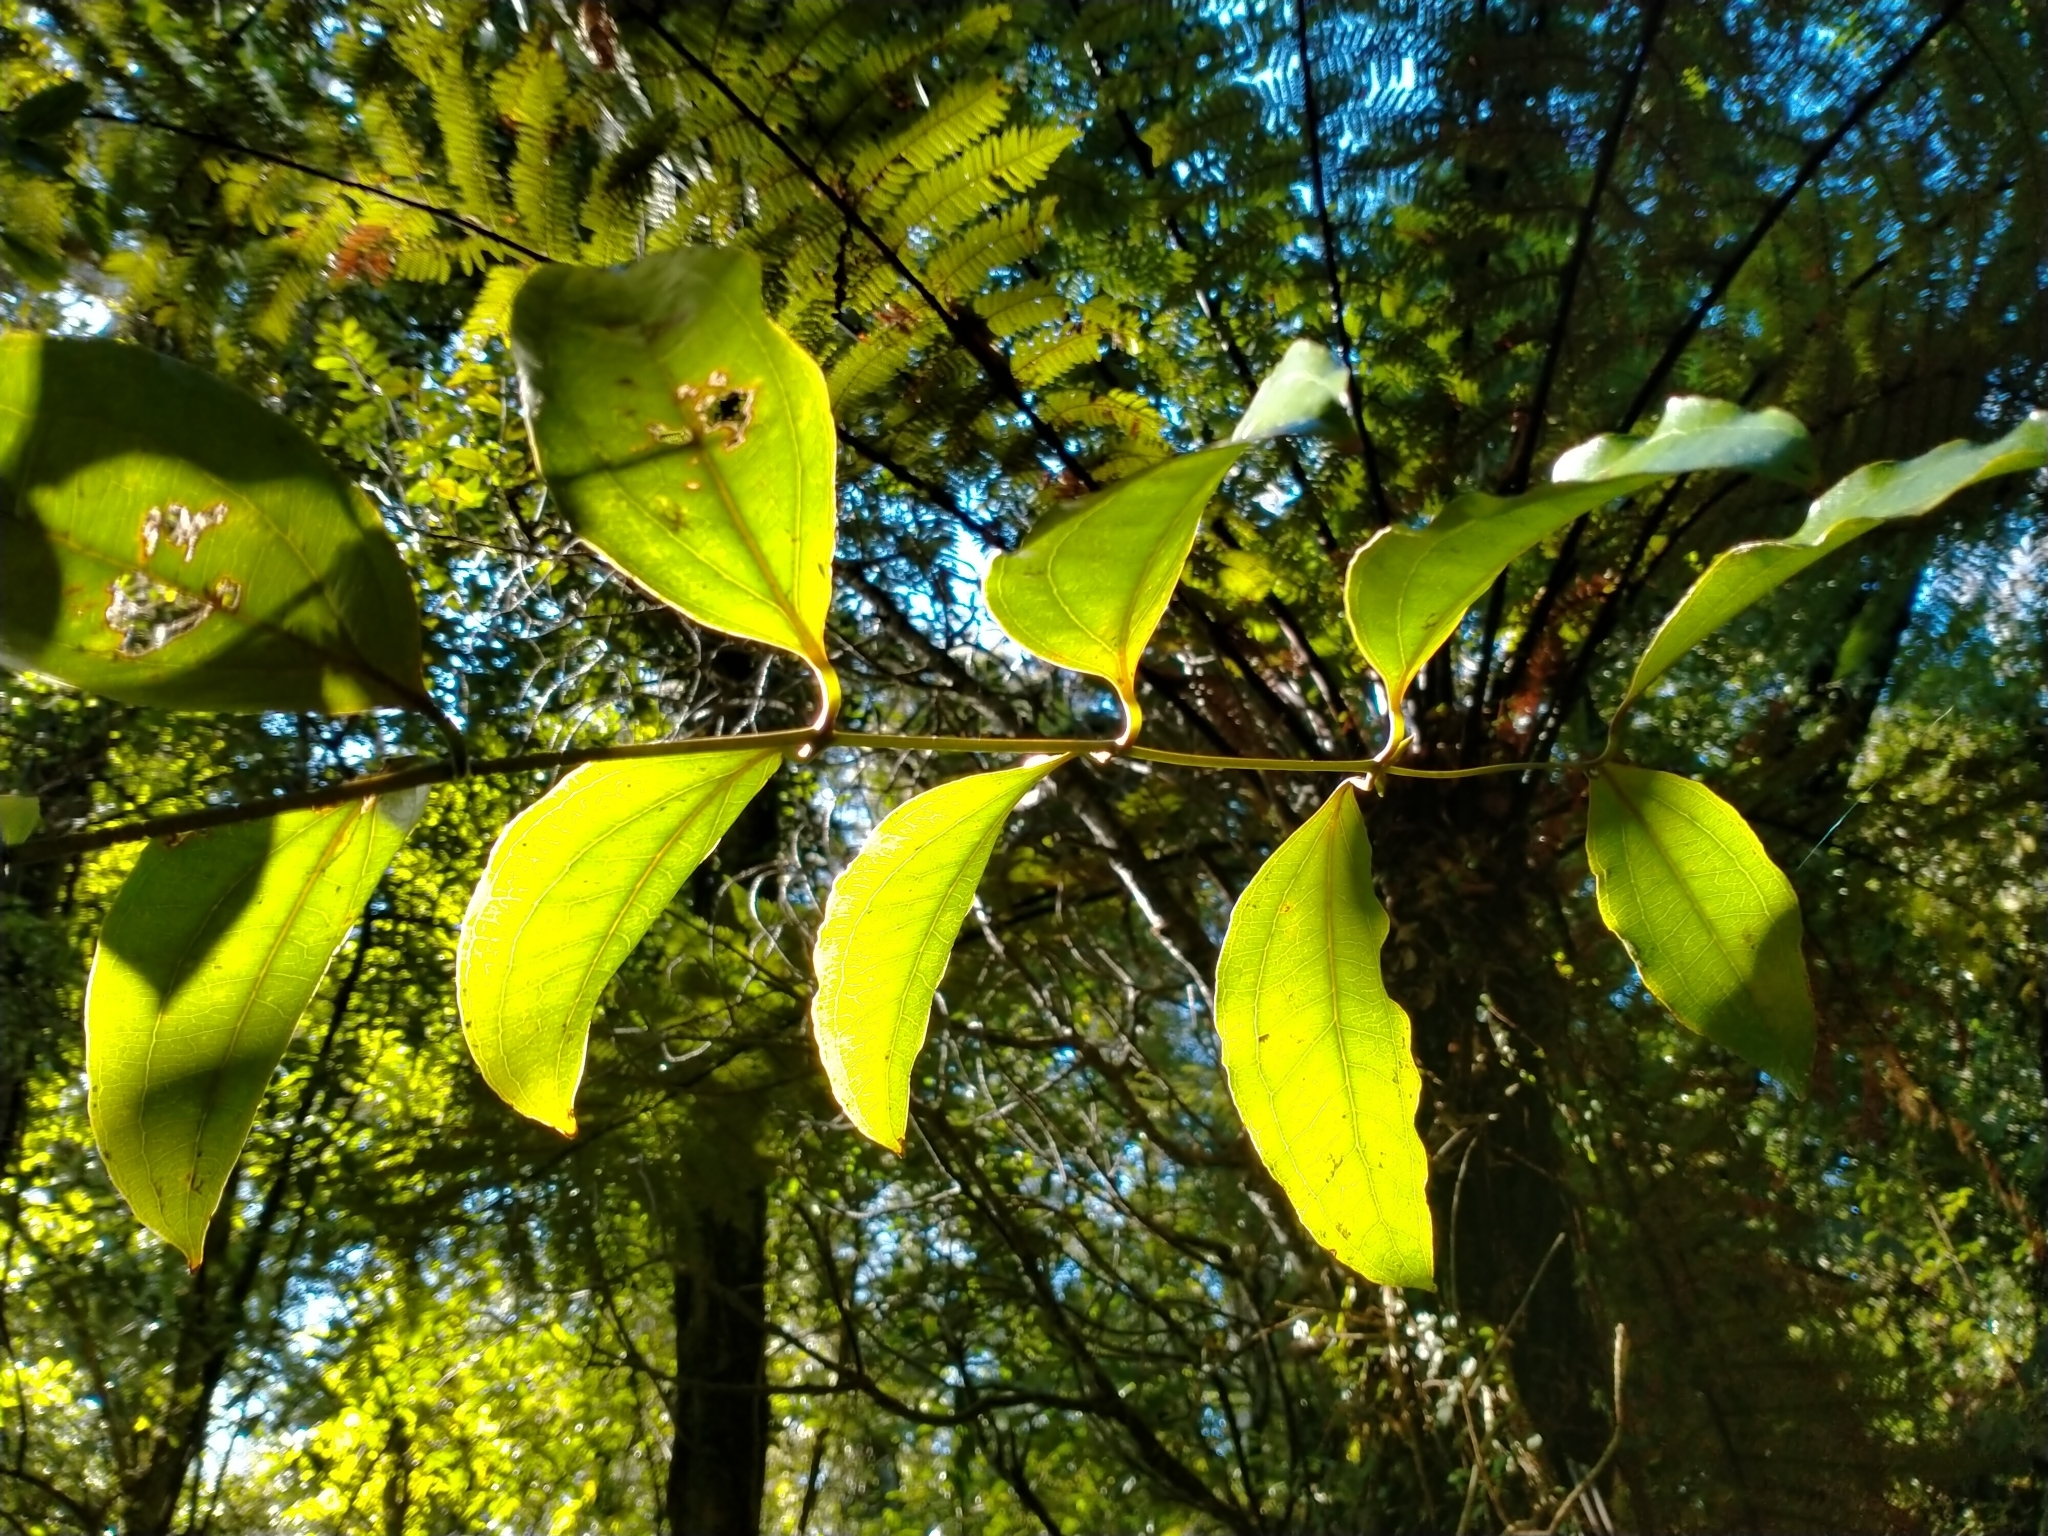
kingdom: Plantae
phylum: Tracheophyta
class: Liliopsida
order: Liliales
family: Ripogonaceae
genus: Ripogonum
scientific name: Ripogonum scandens
